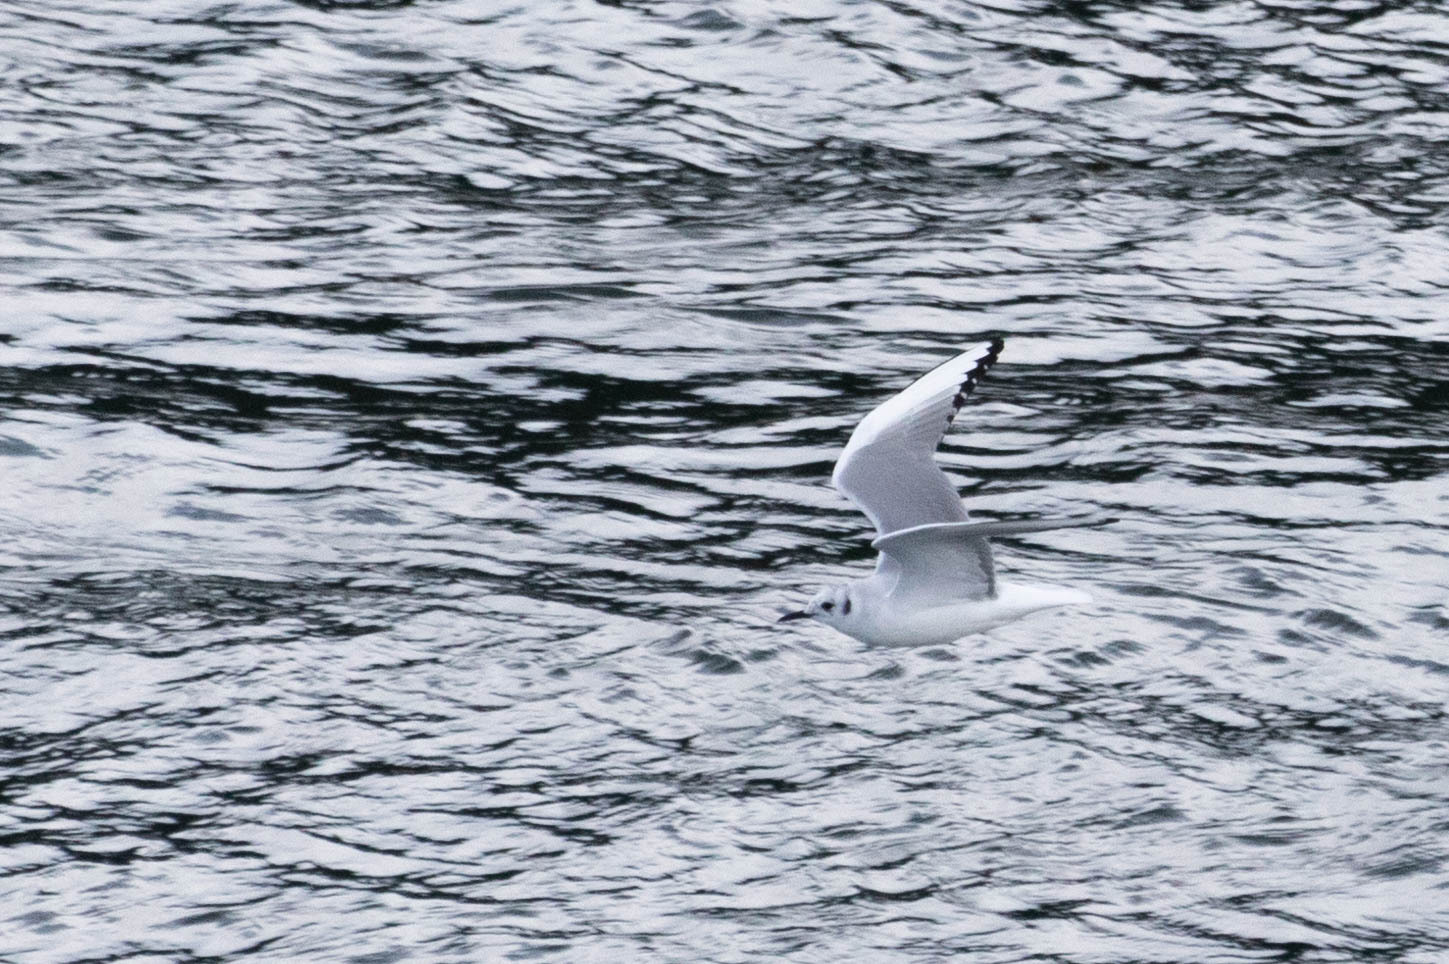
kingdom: Animalia
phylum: Chordata
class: Aves
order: Charadriiformes
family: Laridae
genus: Chroicocephalus
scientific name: Chroicocephalus philadelphia
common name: Bonaparte's gull
